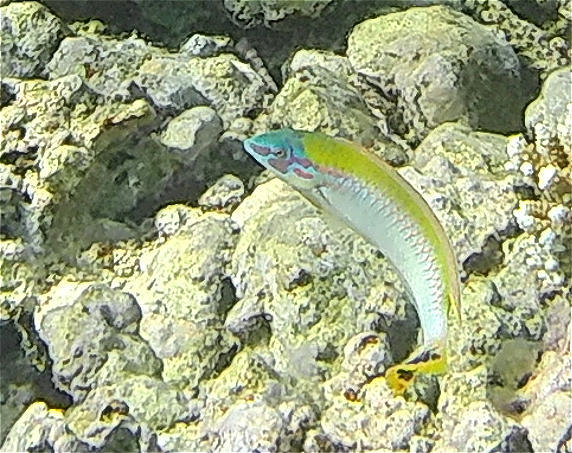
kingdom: Animalia
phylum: Chordata
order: Perciformes
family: Labridae
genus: Halichoeres
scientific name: Halichoeres scapularis
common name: Brownbanded wrasse
